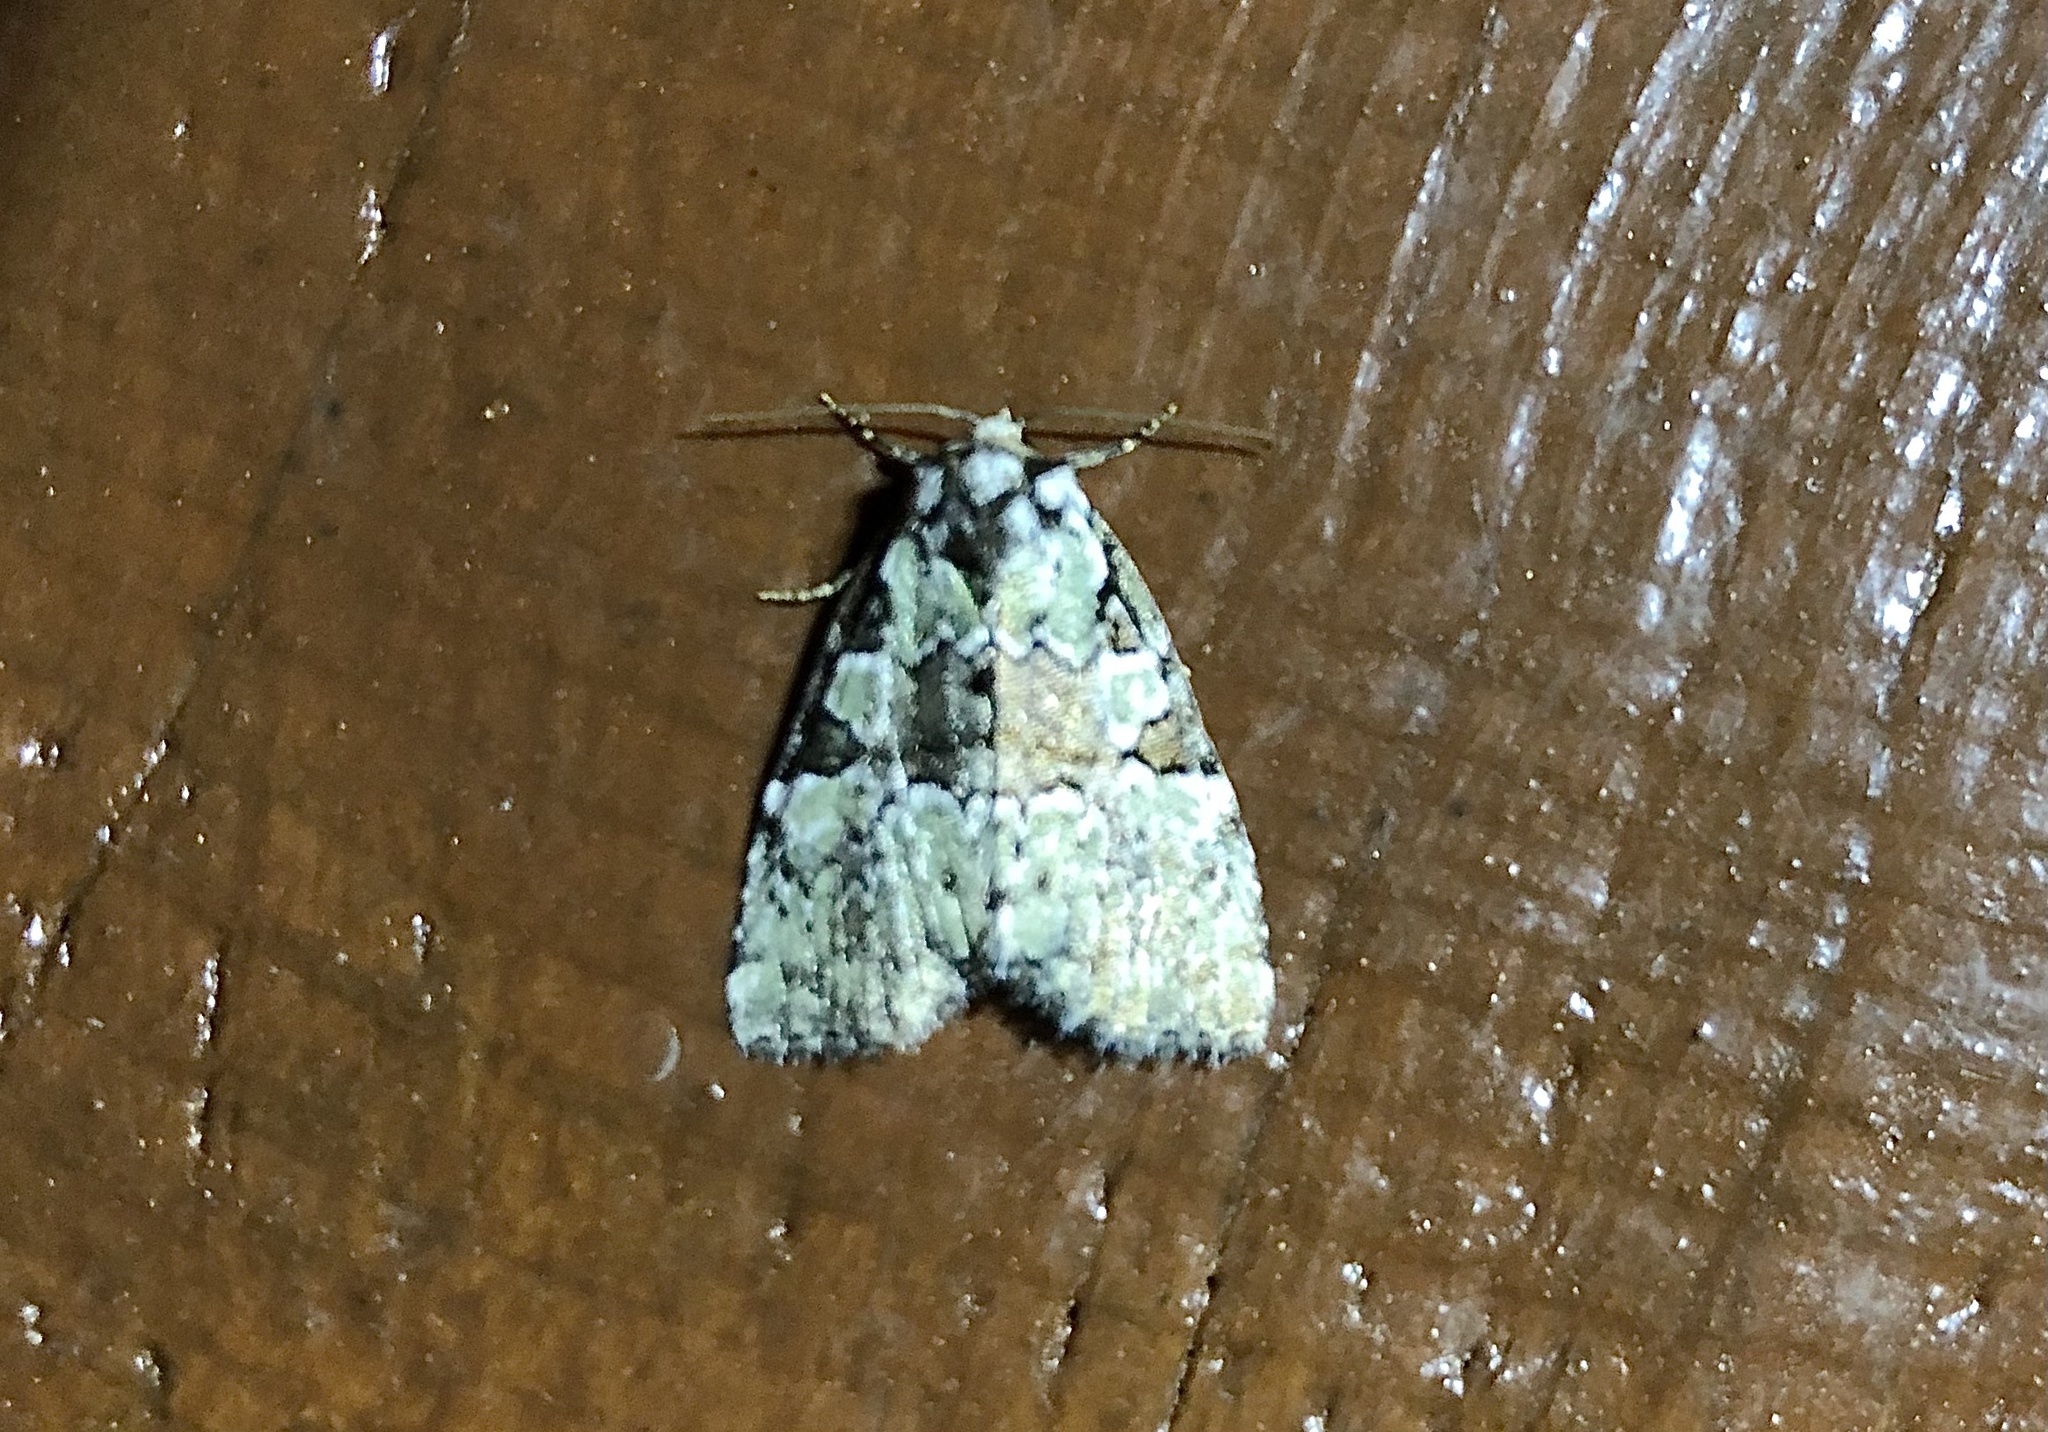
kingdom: Animalia
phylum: Arthropoda
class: Insecta
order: Lepidoptera
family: Noctuidae
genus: Leuconycta
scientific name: Leuconycta lepidula
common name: Marbled-green leuconycta moth
